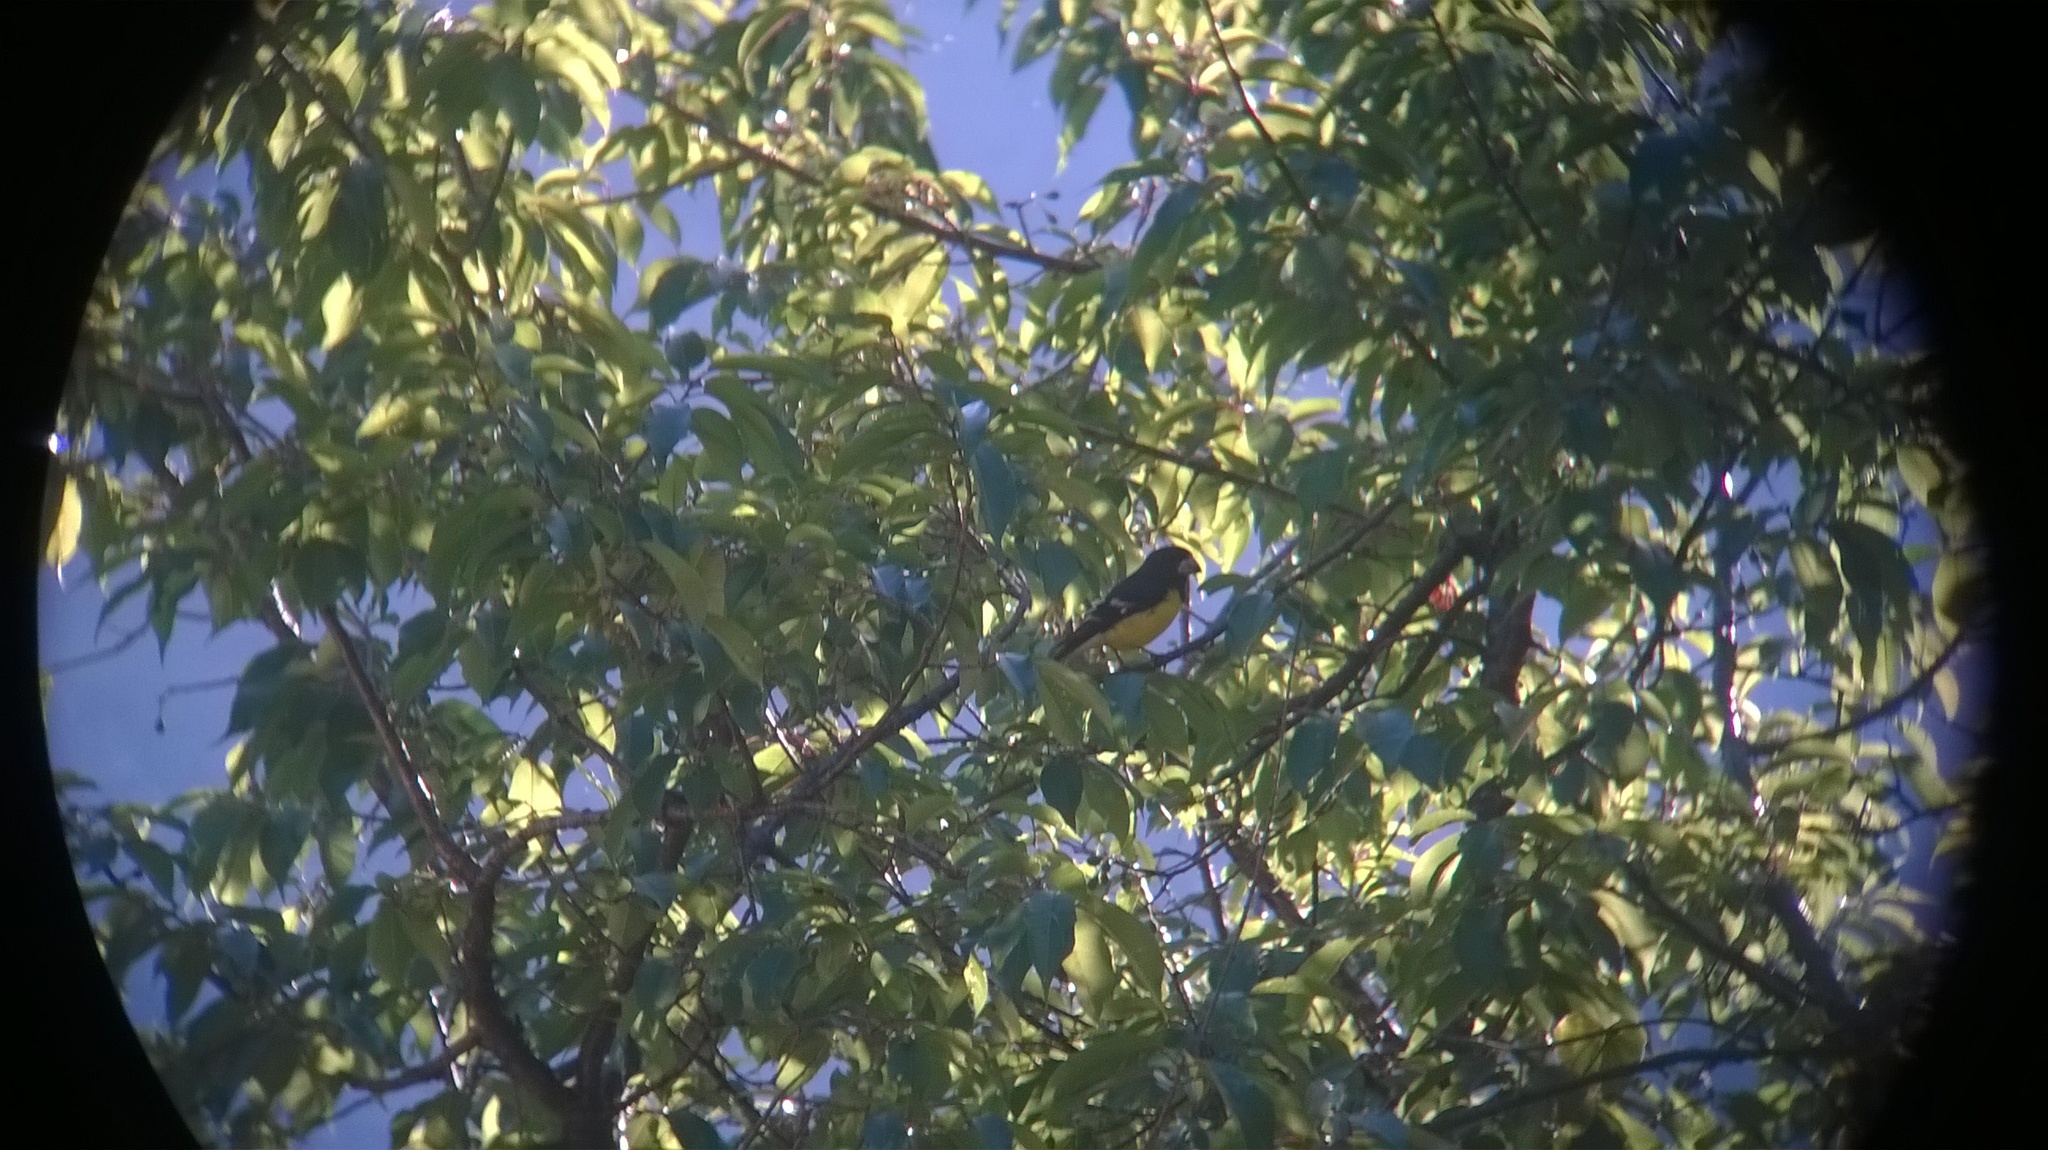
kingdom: Animalia
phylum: Chordata
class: Aves
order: Passeriformes
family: Fringillidae
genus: Mycerobas
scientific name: Mycerobas melanozanthos
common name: Spot-winged grosbeak
